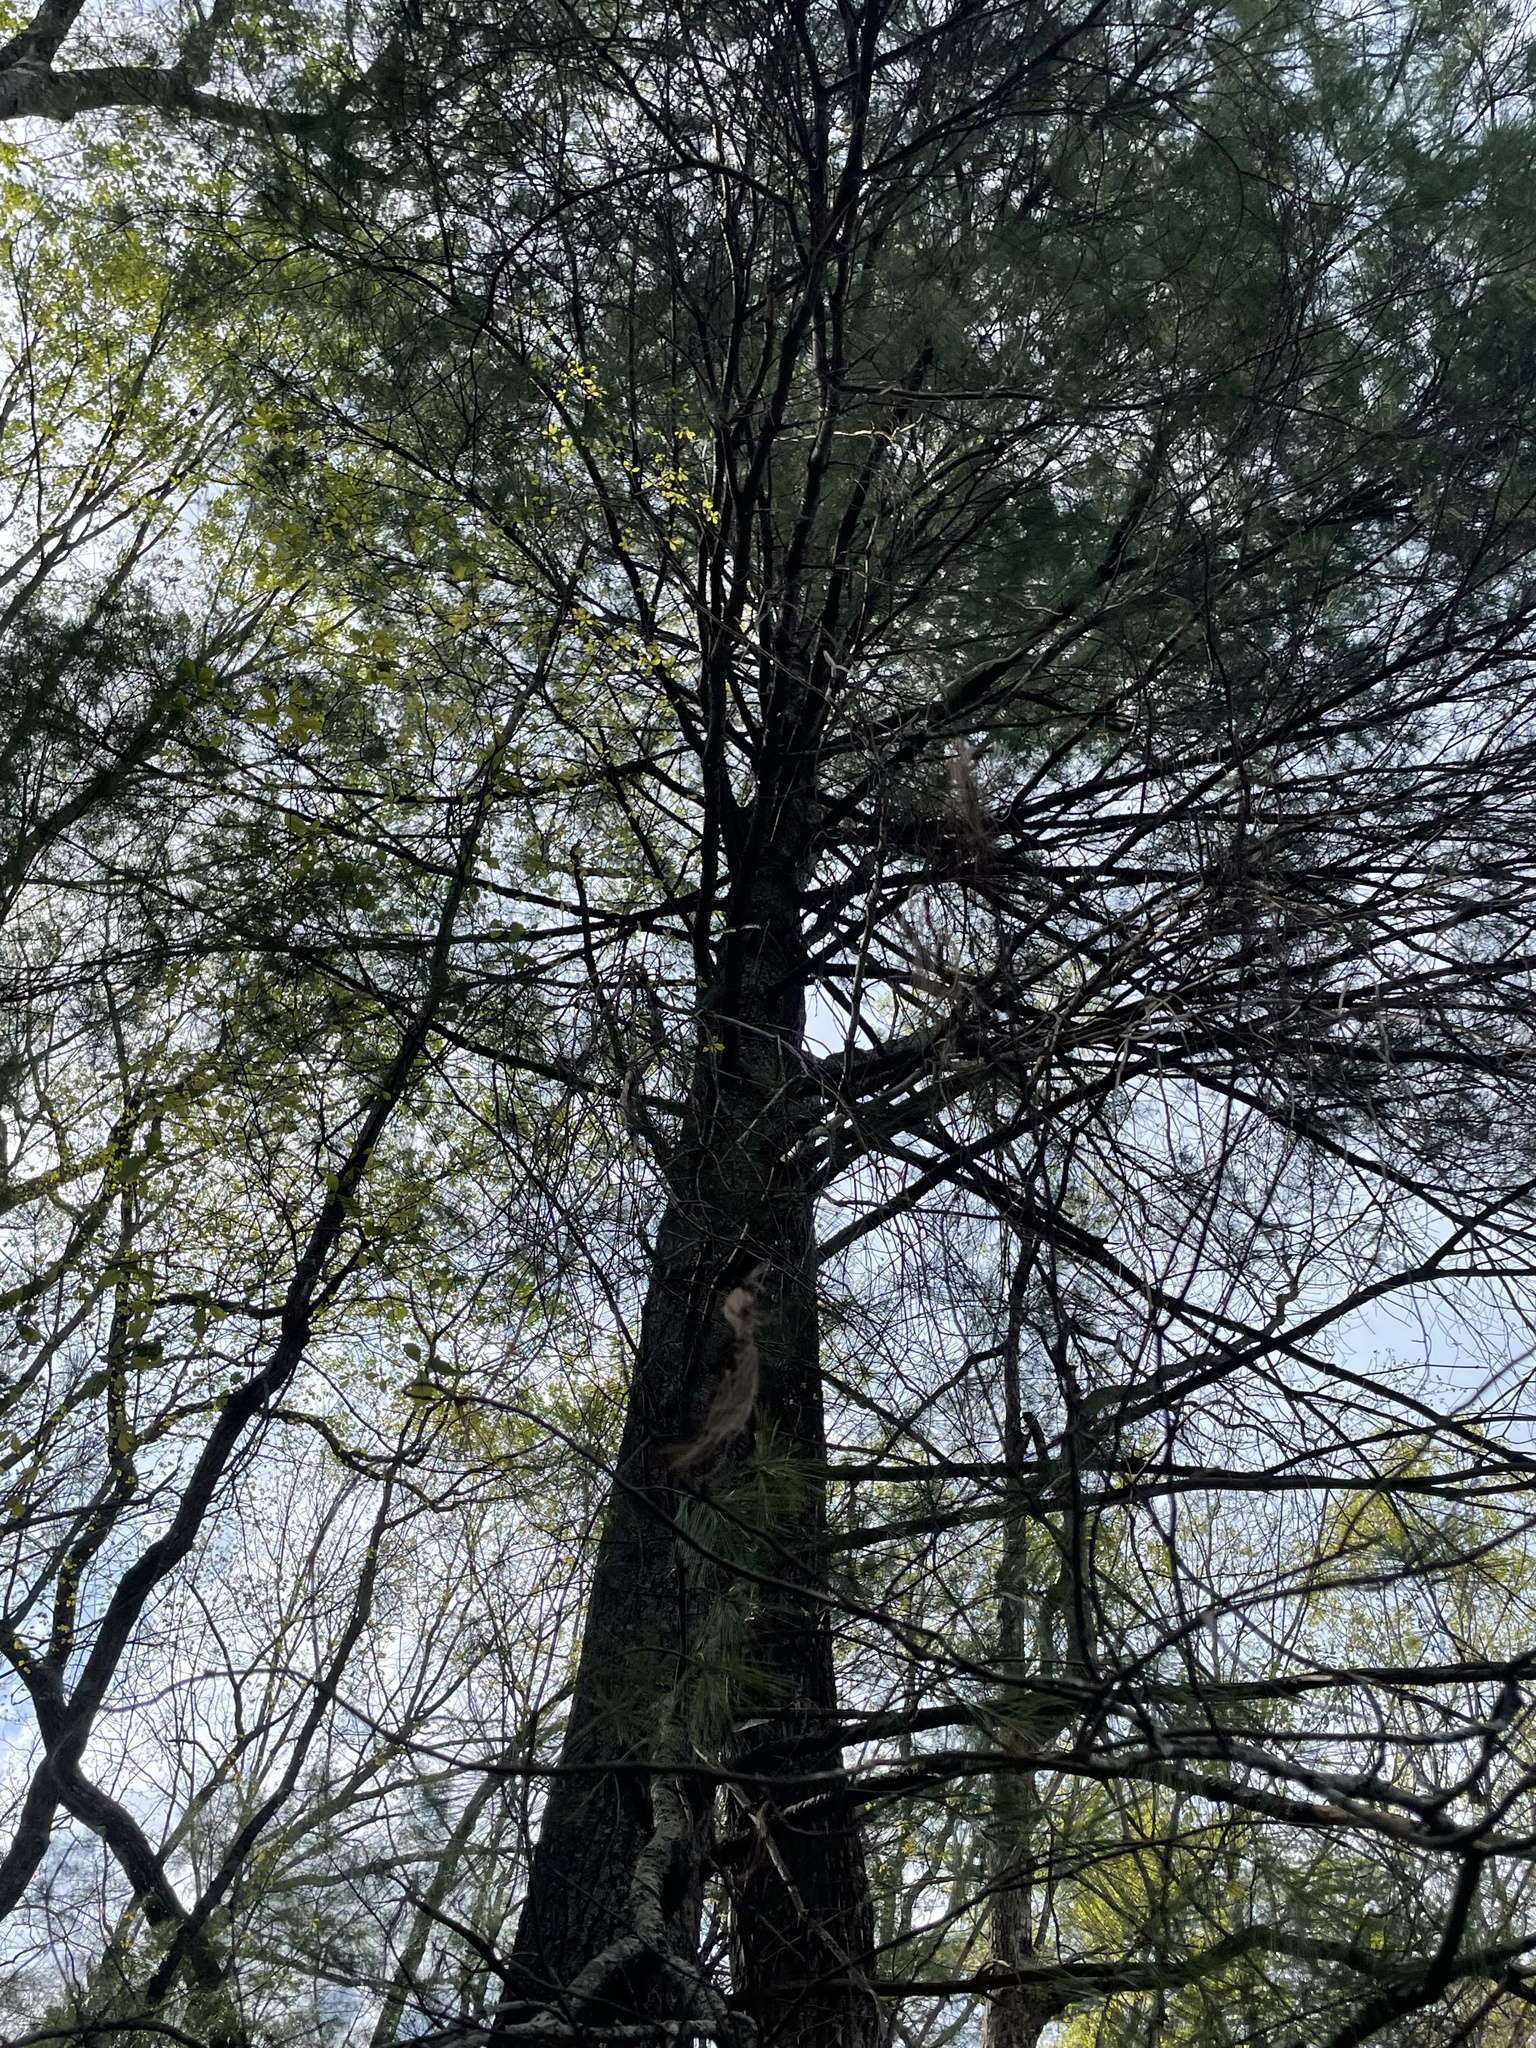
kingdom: Plantae
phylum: Tracheophyta
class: Pinopsida
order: Pinales
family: Pinaceae
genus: Pinus
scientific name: Pinus strobus
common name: Weymouth pine
